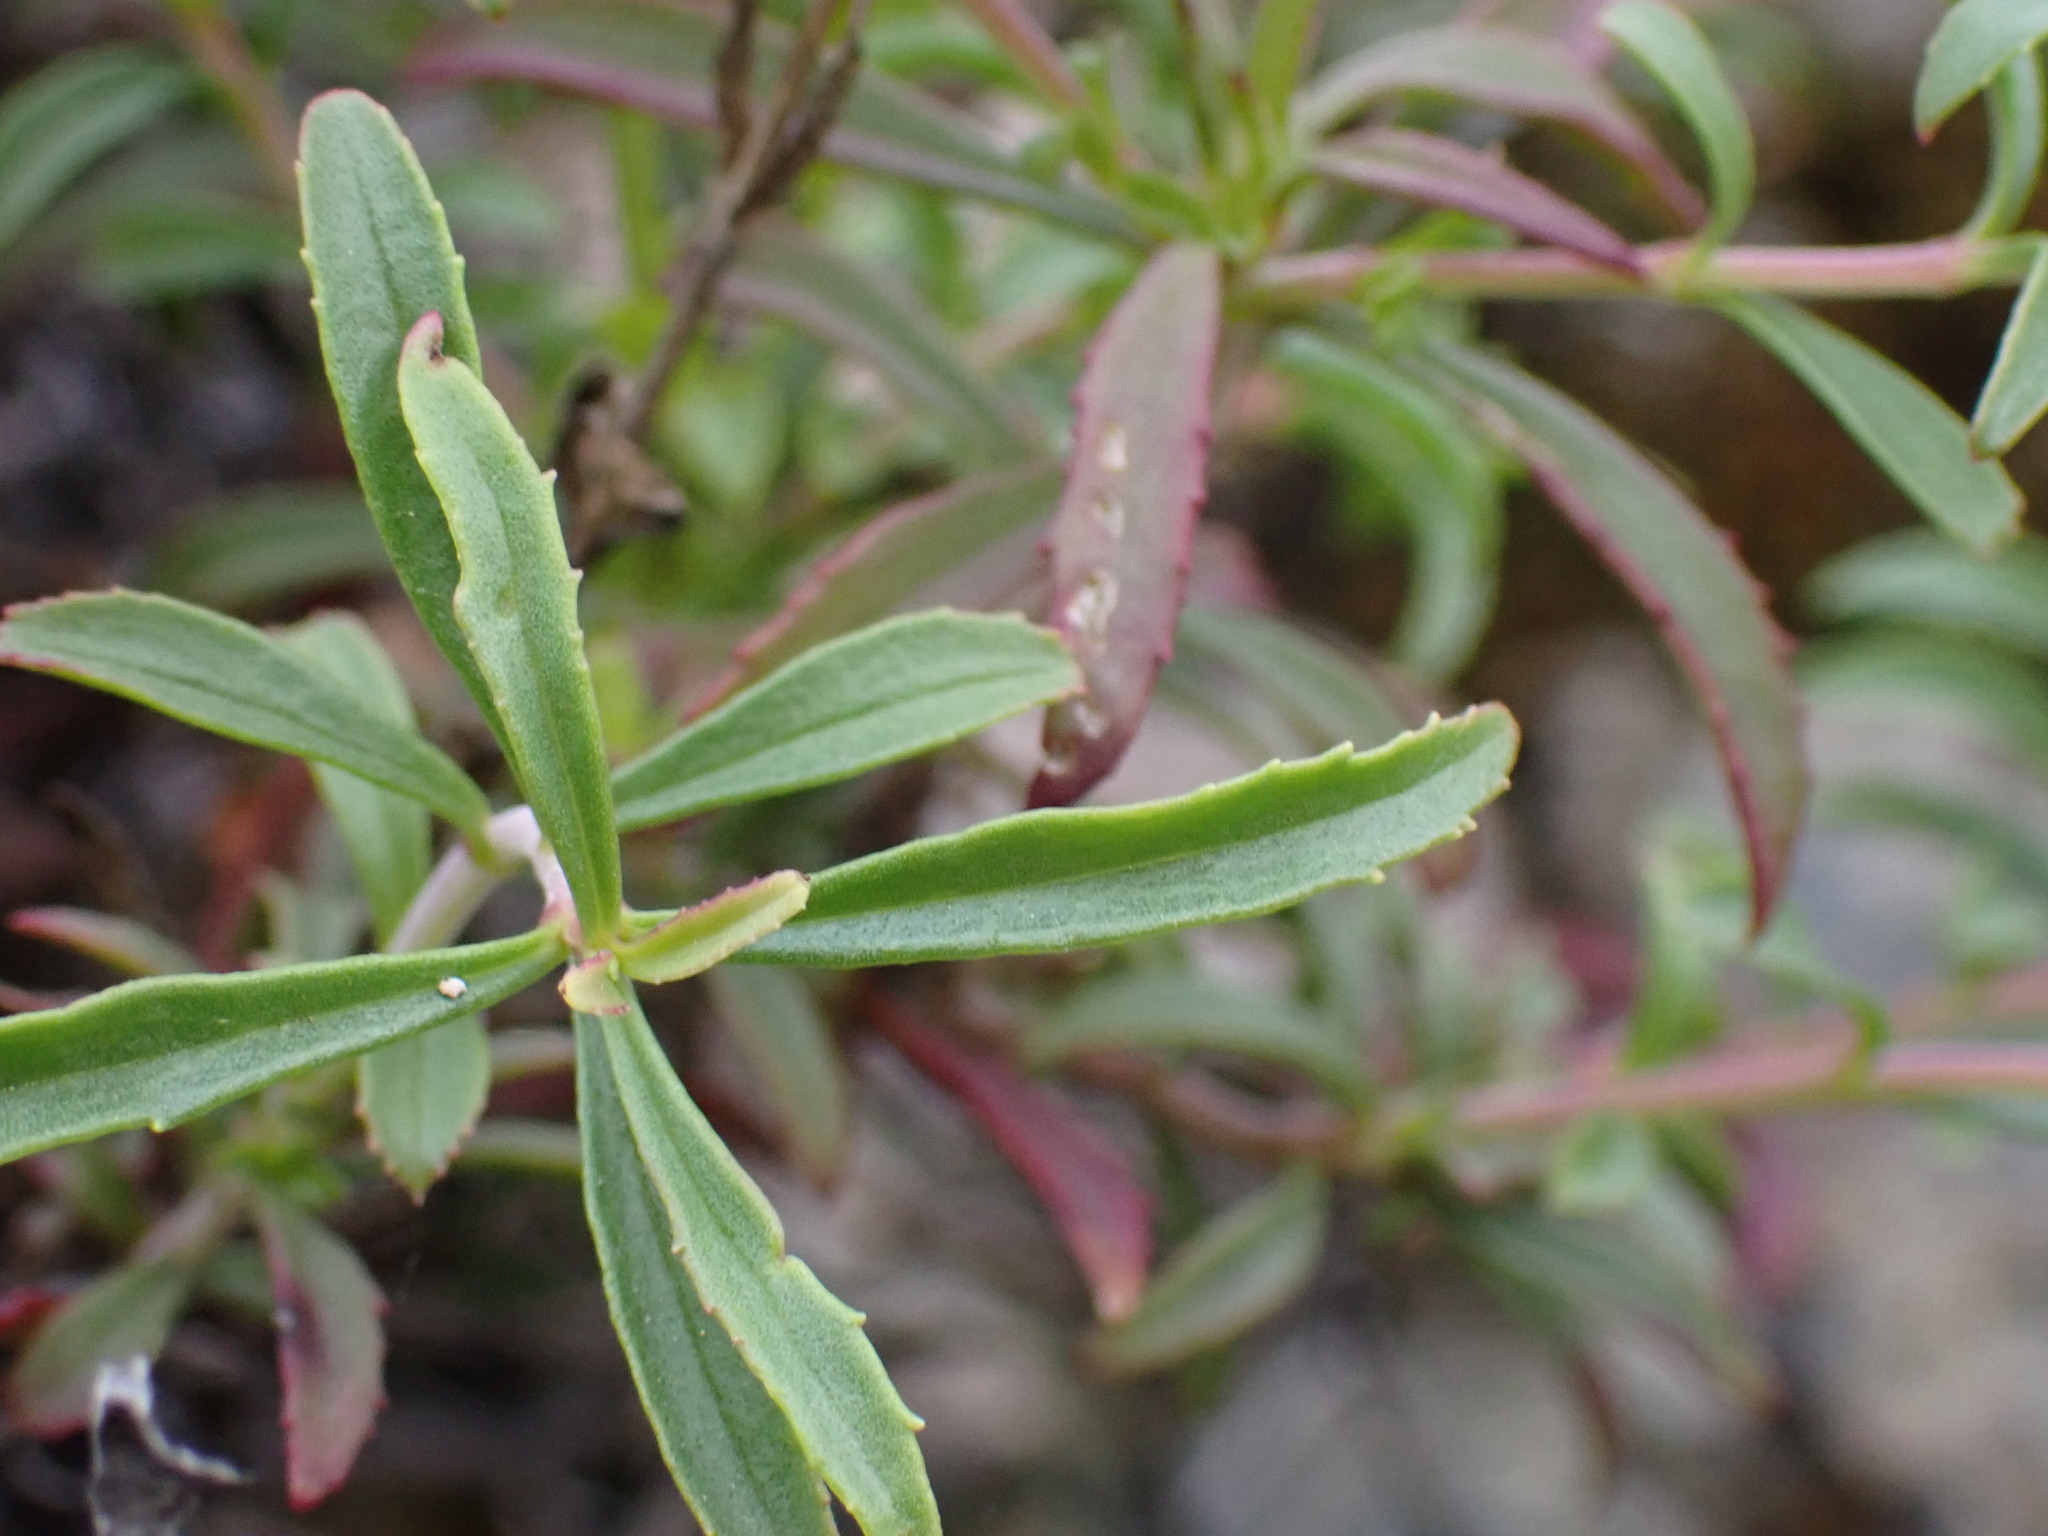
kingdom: Plantae
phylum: Tracheophyta
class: Magnoliopsida
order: Lamiales
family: Plantaginaceae
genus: Penstemon
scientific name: Penstemon fruticosus
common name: Bush penstemon
